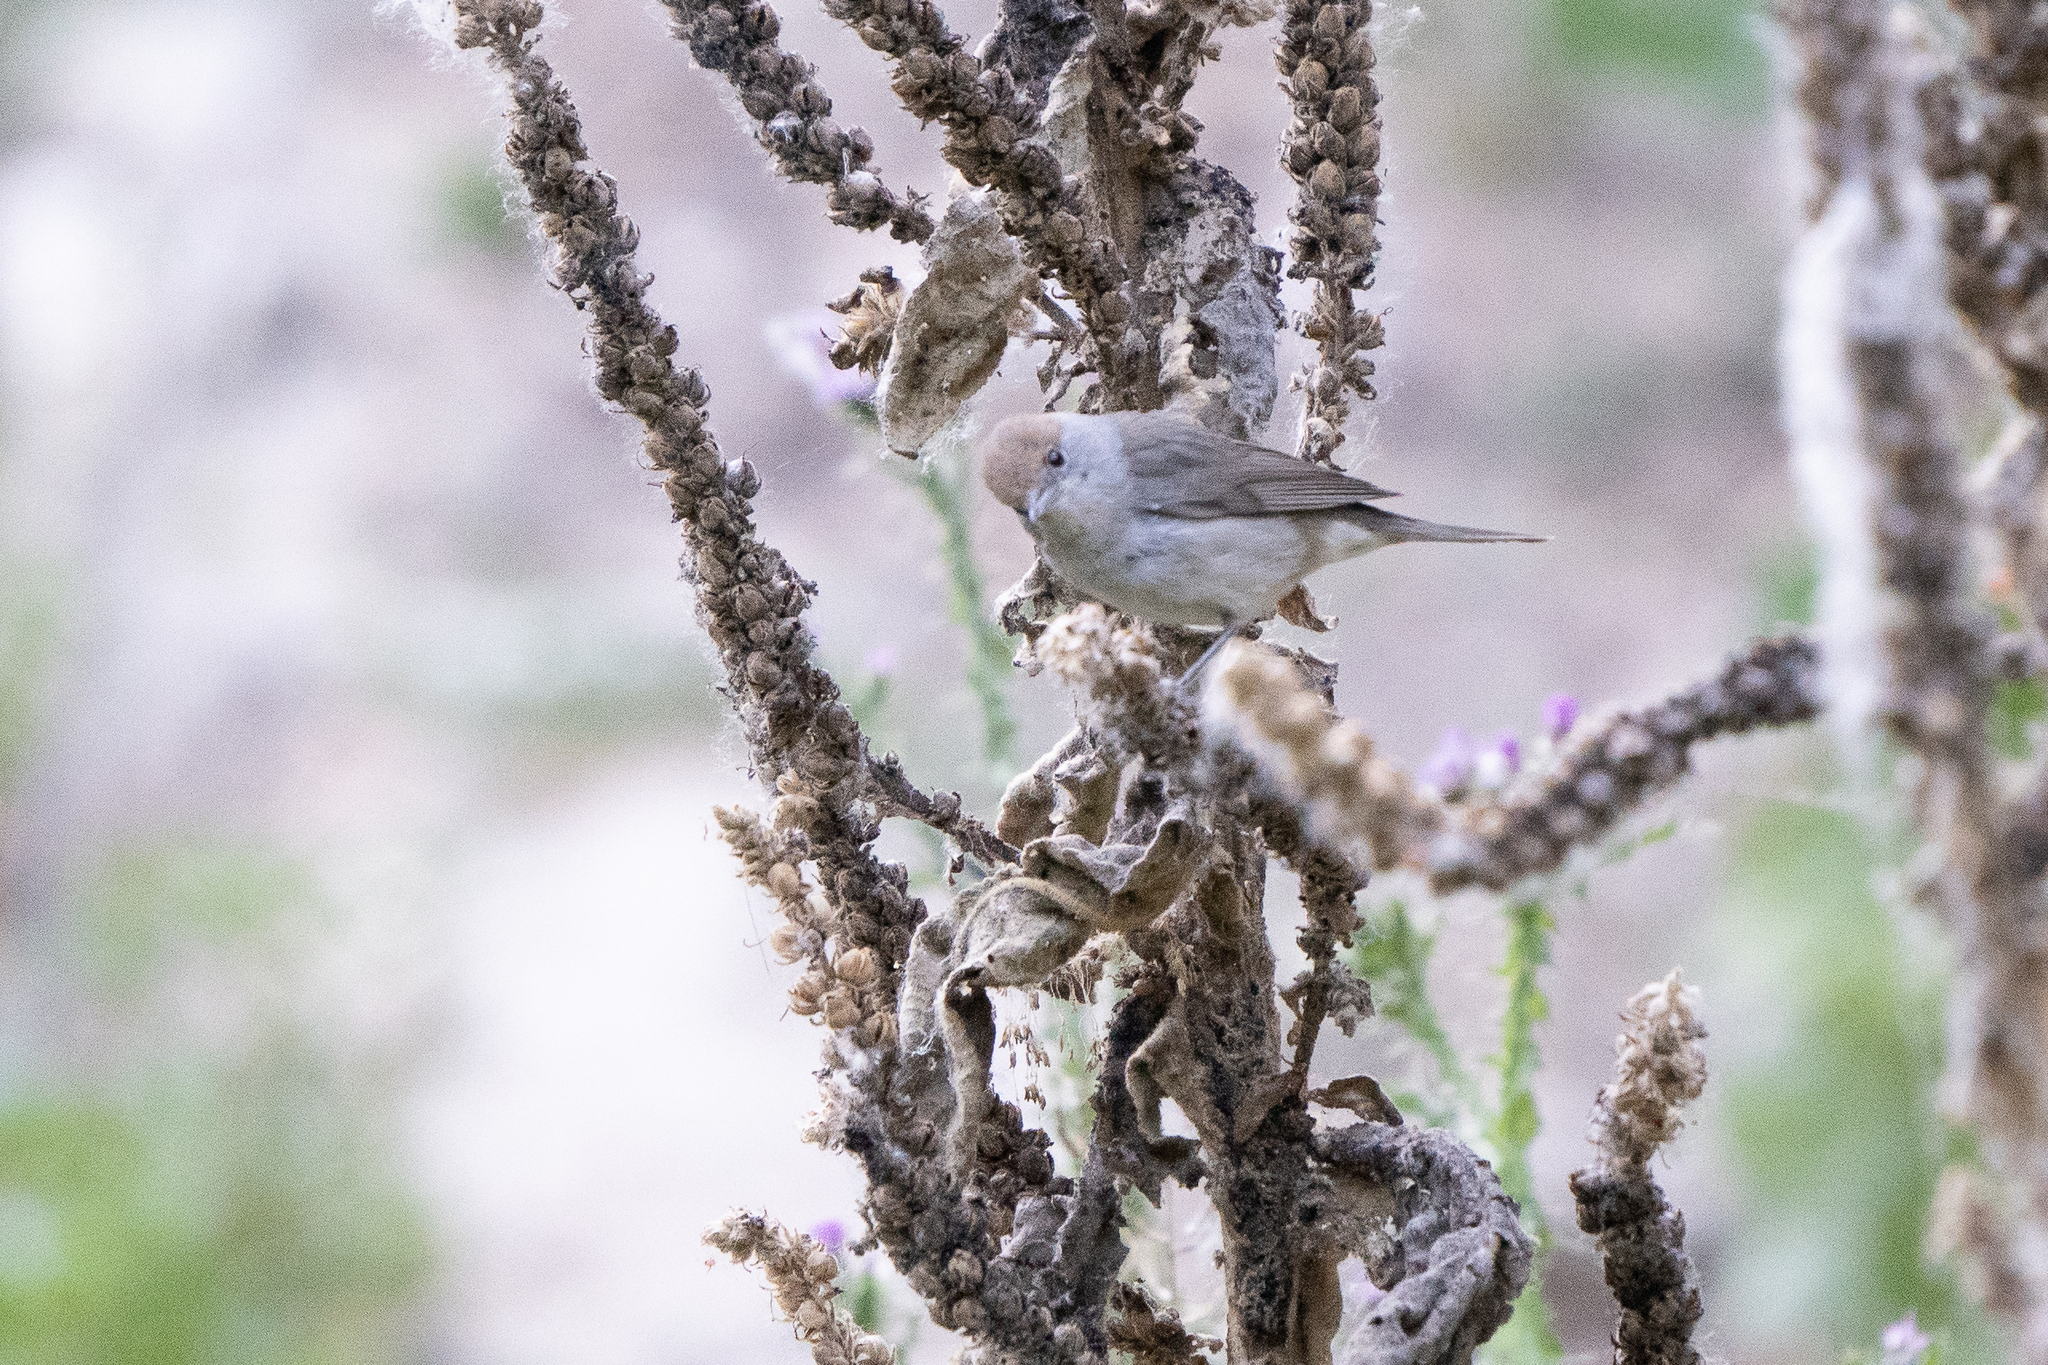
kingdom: Animalia
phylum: Chordata
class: Aves
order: Passeriformes
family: Sylviidae
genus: Sylvia
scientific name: Sylvia atricapilla
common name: Eurasian blackcap
